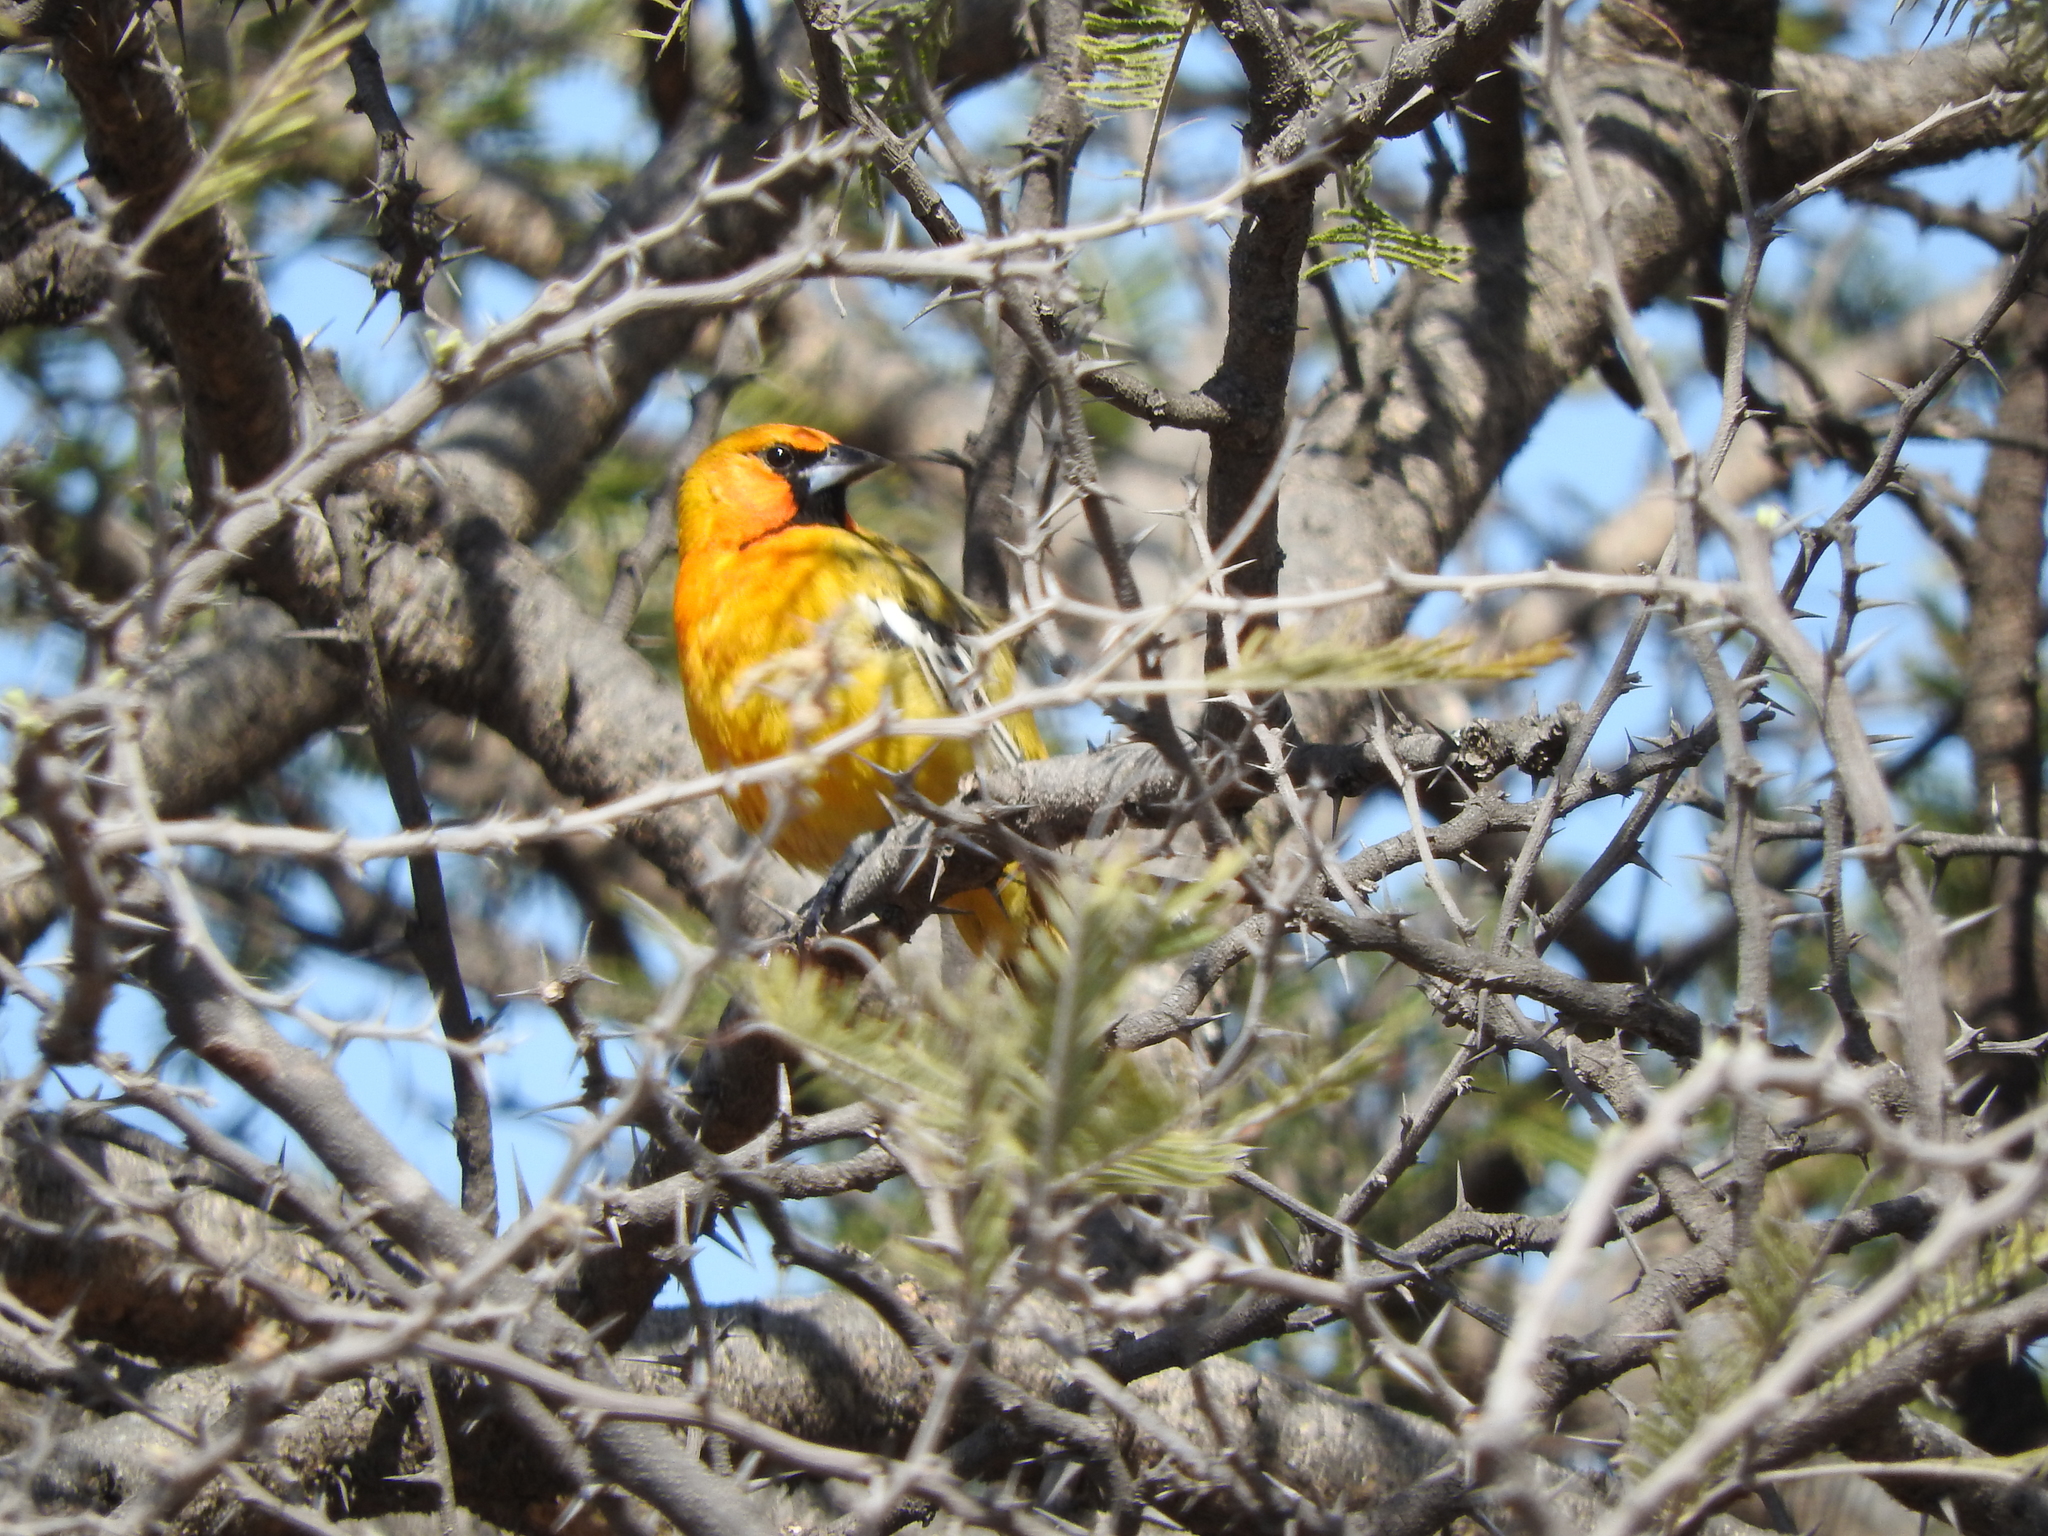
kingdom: Animalia
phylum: Chordata
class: Aves
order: Passeriformes
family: Icteridae
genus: Icterus
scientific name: Icterus pustulatus
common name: Streak-backed oriole
